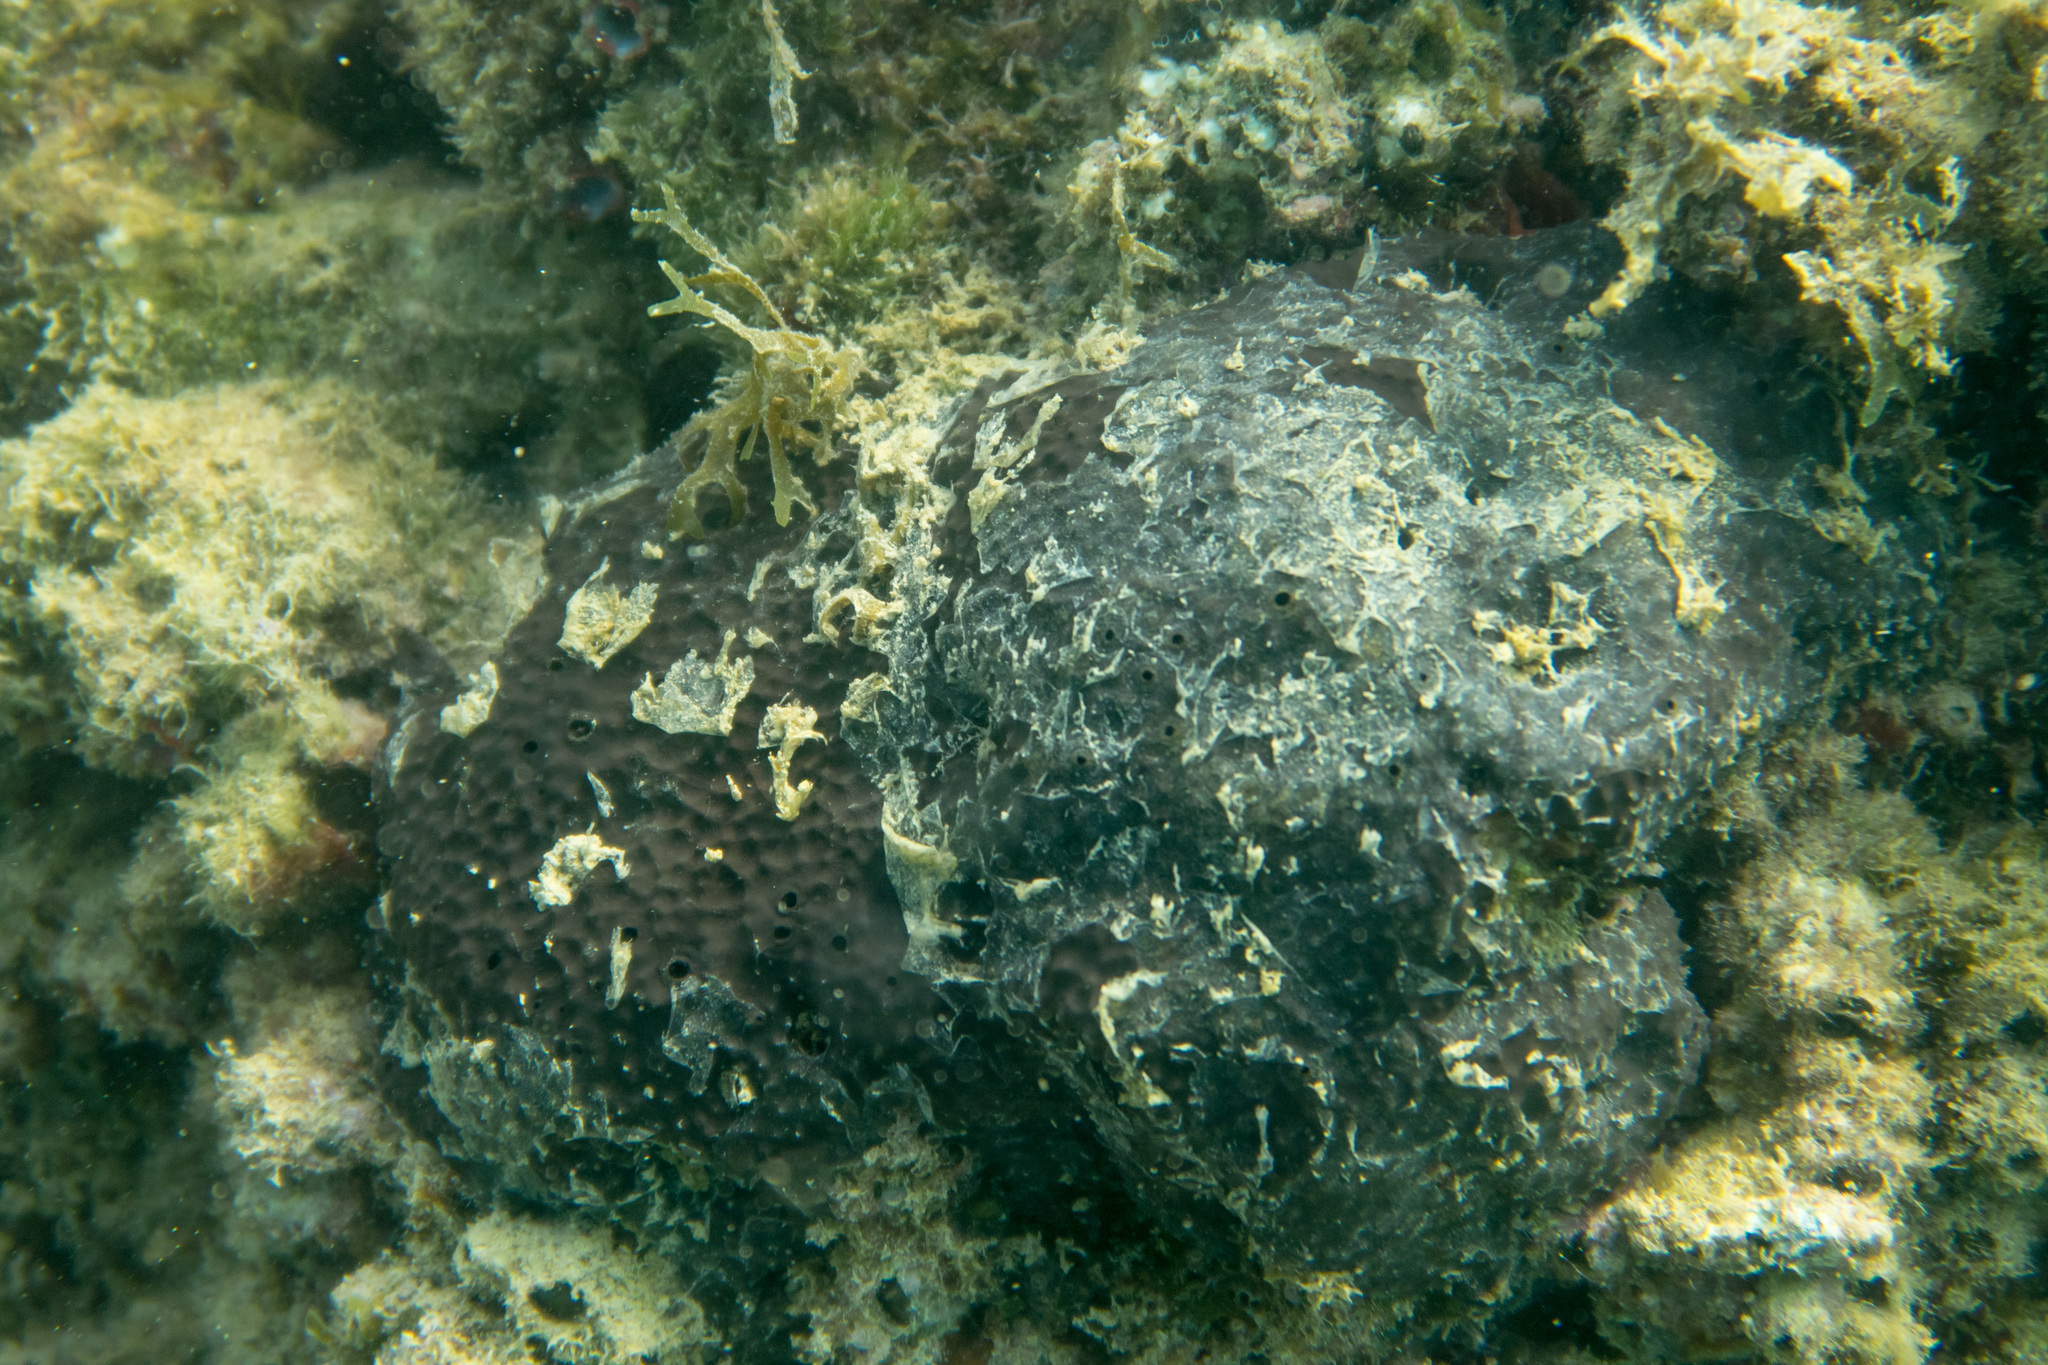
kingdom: Animalia
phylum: Porifera
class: Demospongiae
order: Dictyoceratida
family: Irciniidae
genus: Sarcotragus
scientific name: Sarcotragus spinosulus
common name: Black leather sponge
